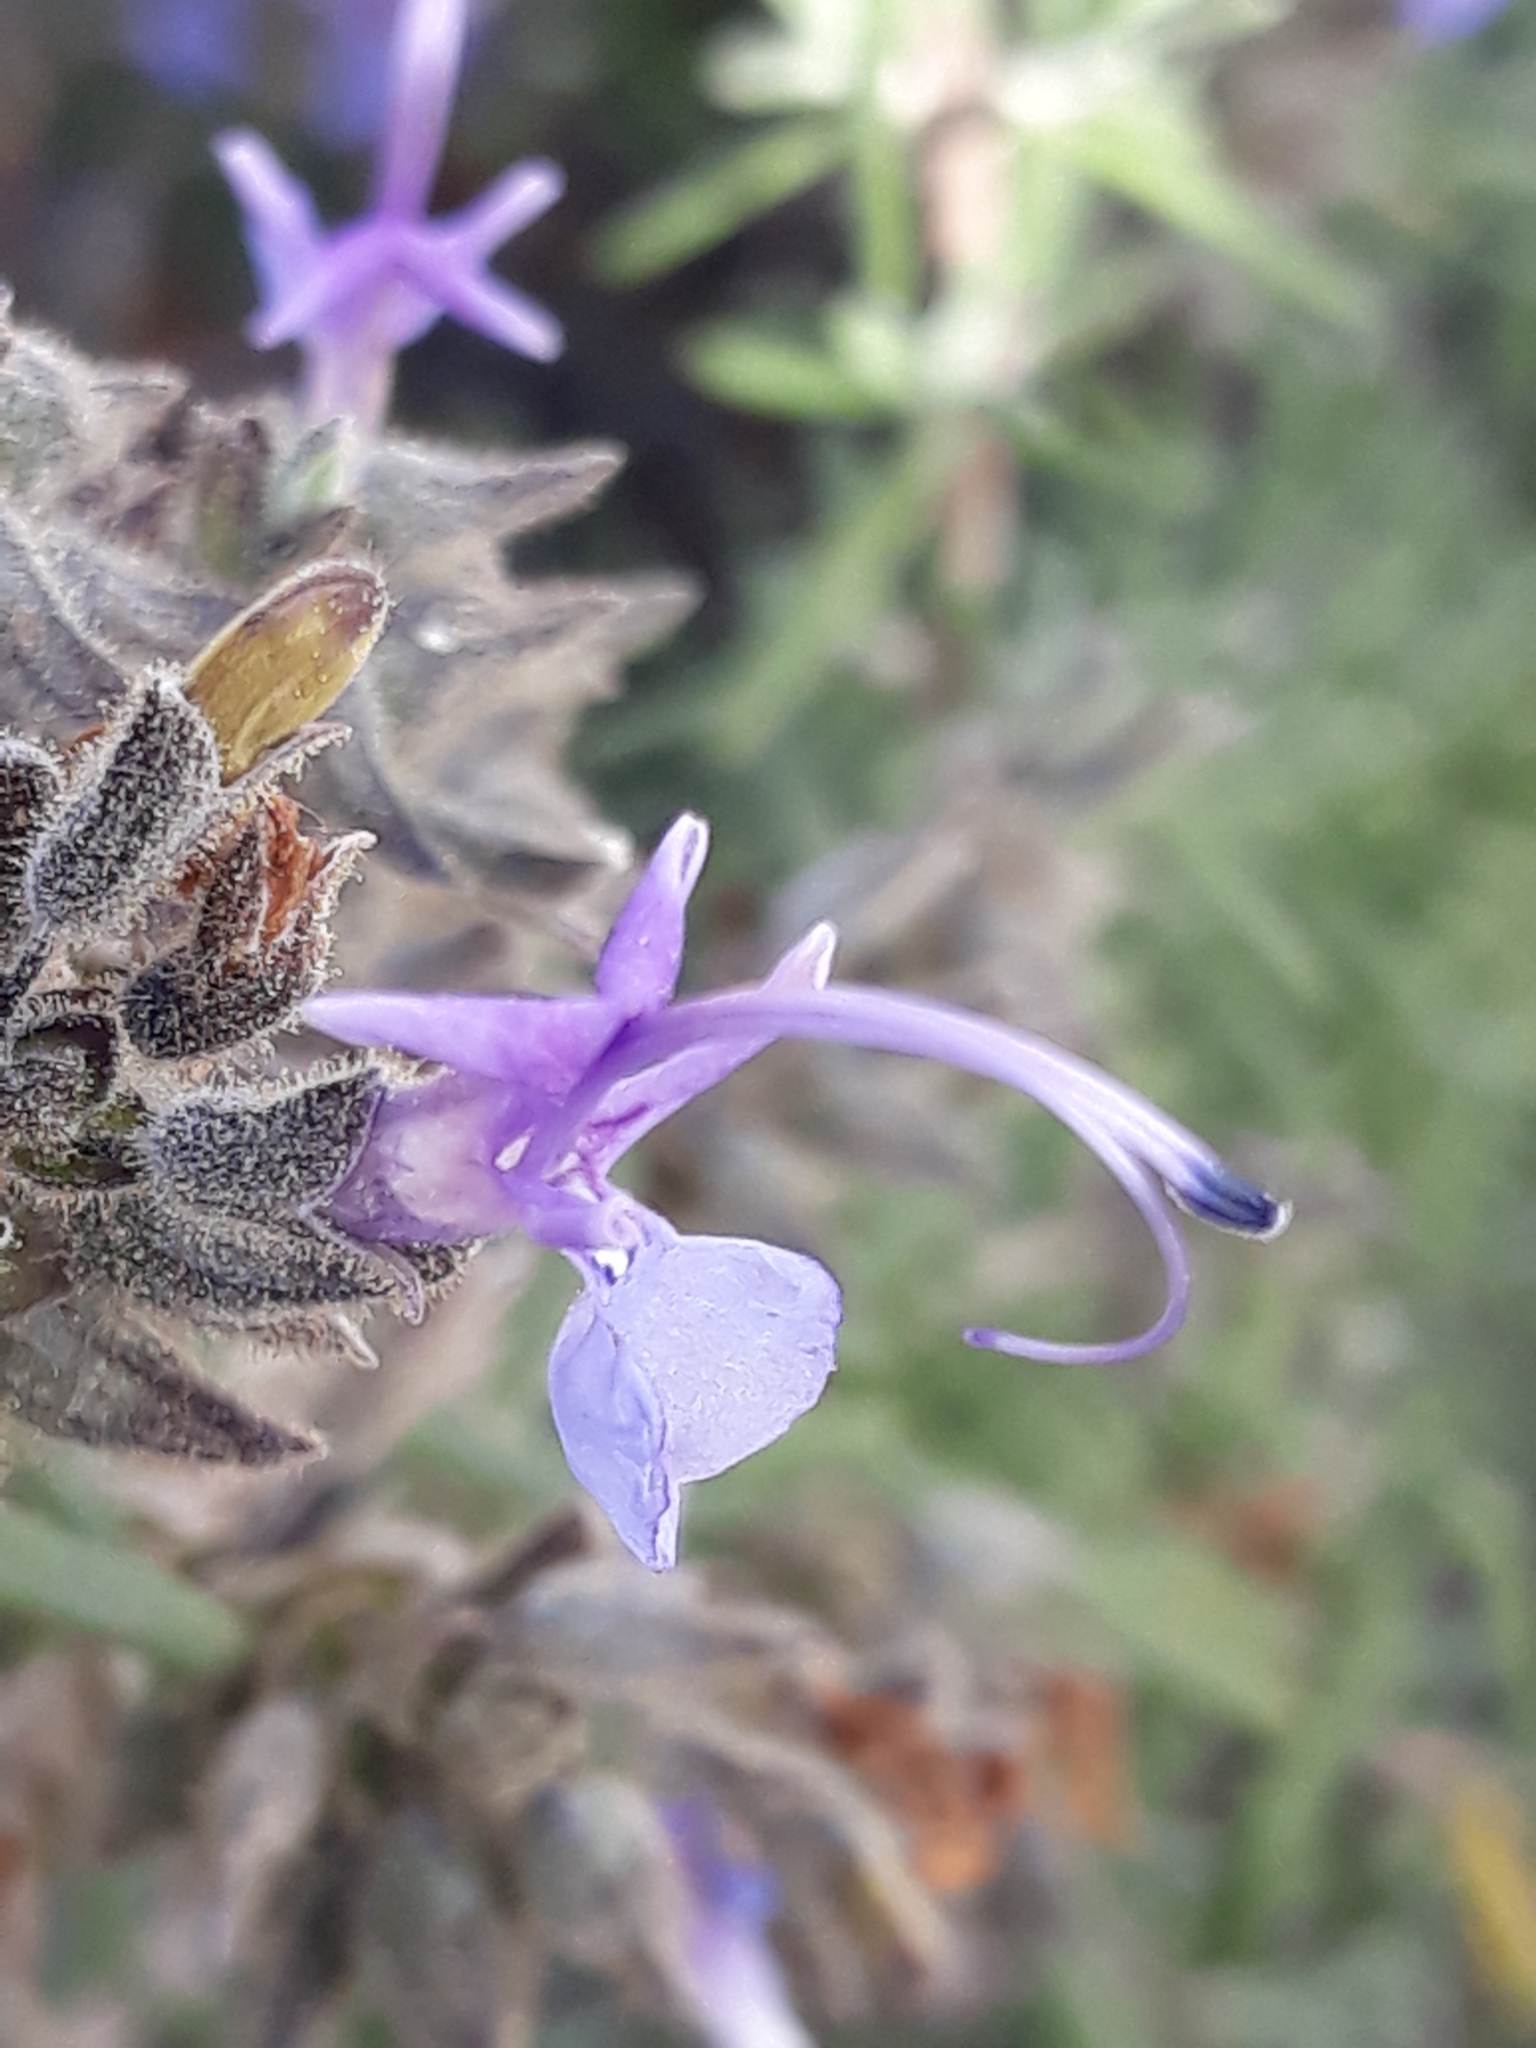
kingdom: Plantae
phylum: Tracheophyta
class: Magnoliopsida
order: Lamiales
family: Lamiaceae
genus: Salvia
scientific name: Salvia jordanii
